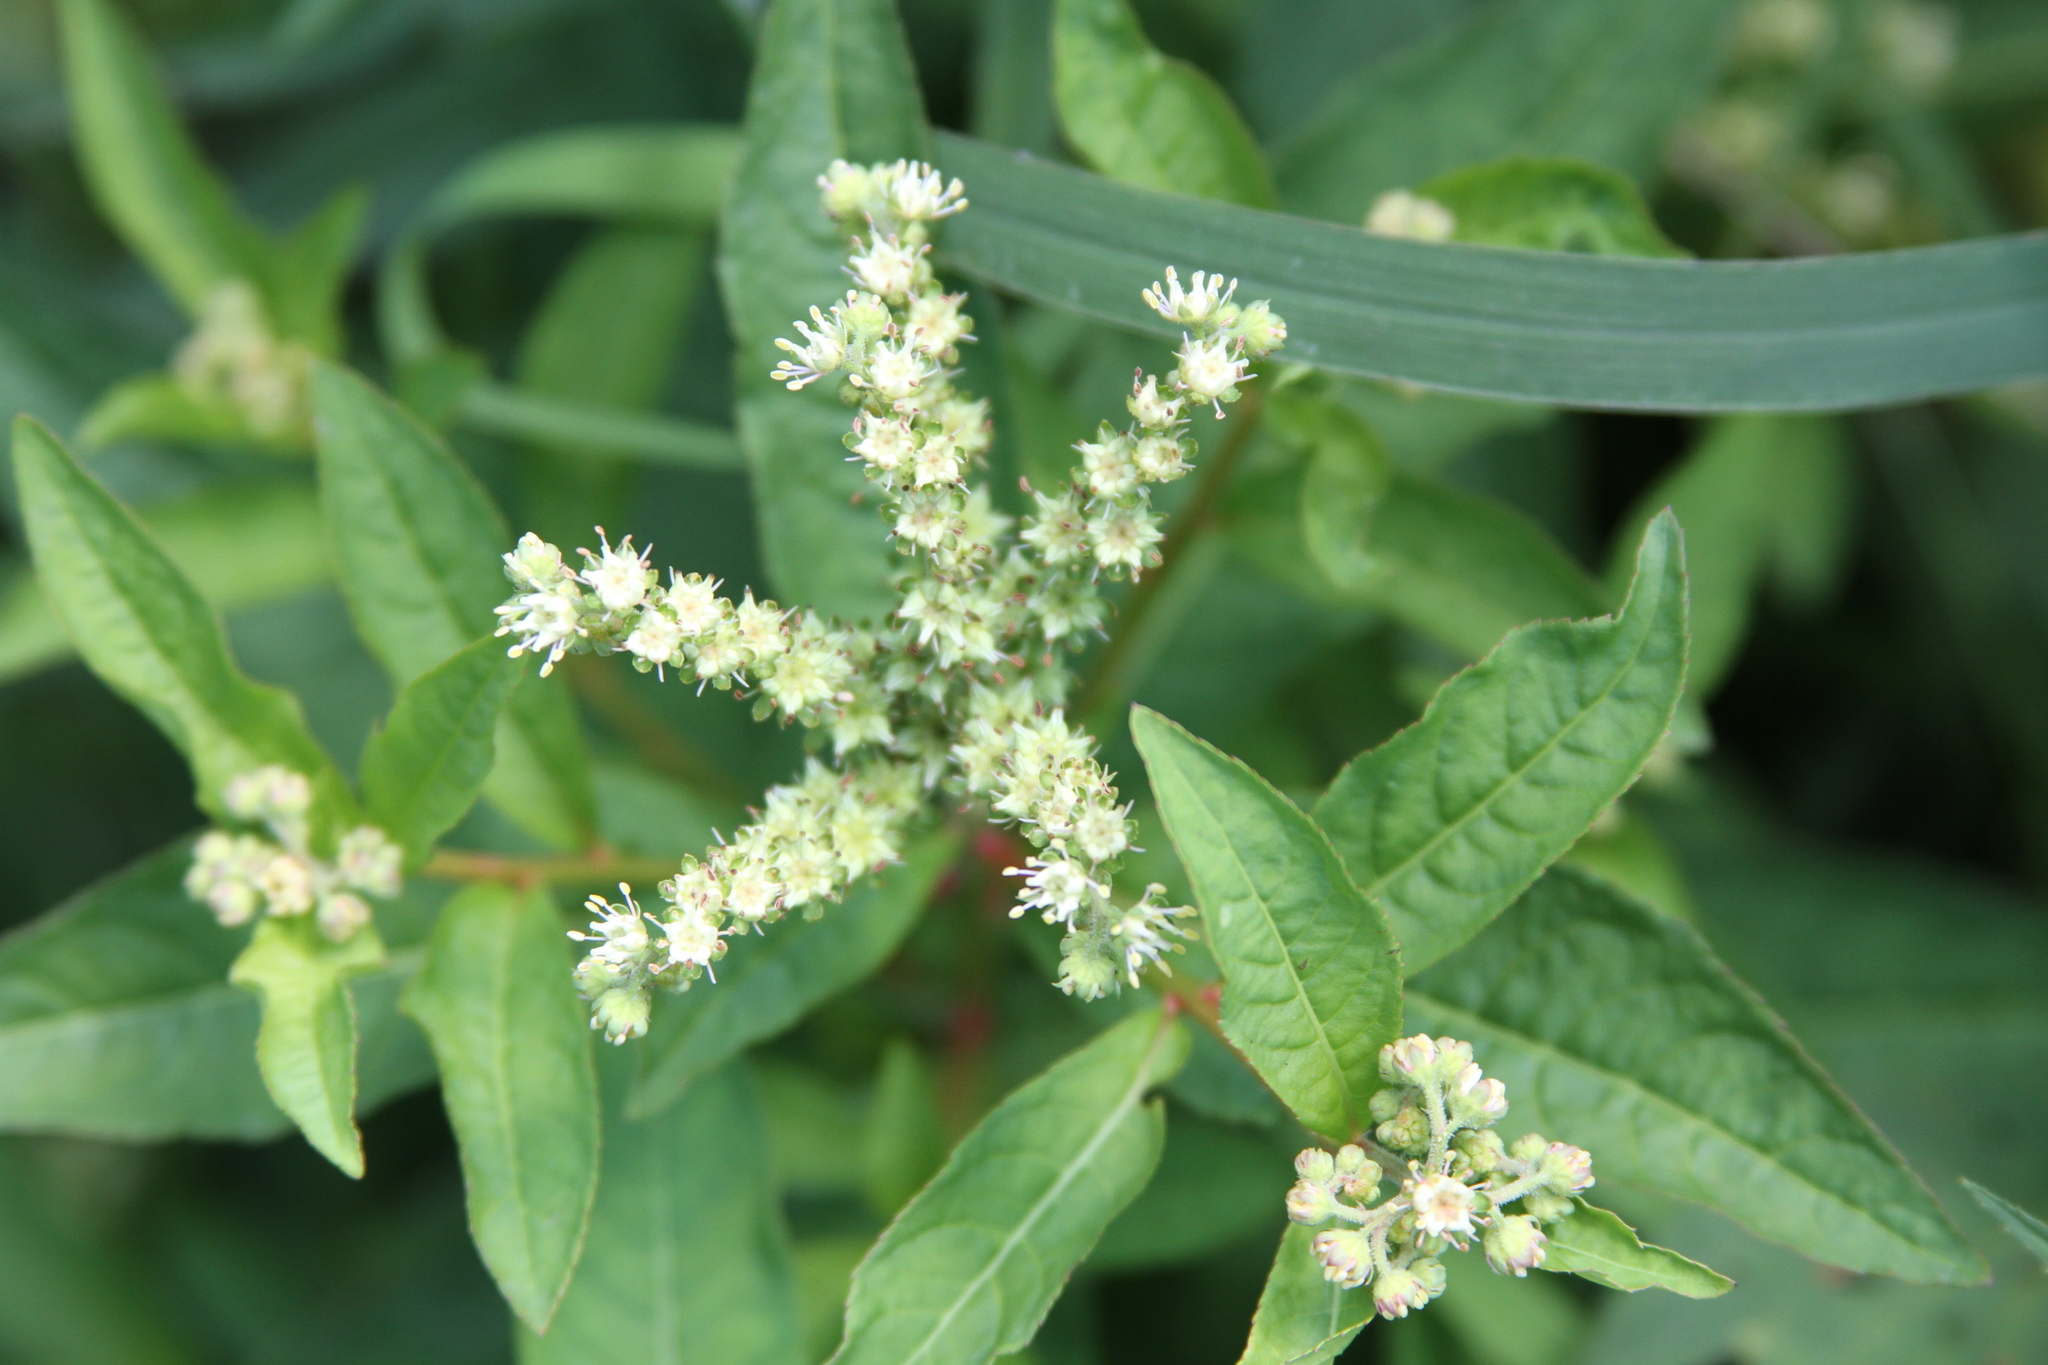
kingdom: Plantae
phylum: Tracheophyta
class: Magnoliopsida
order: Saxifragales
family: Penthoraceae
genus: Penthorum
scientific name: Penthorum sedoides
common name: Ditch stonecrop
